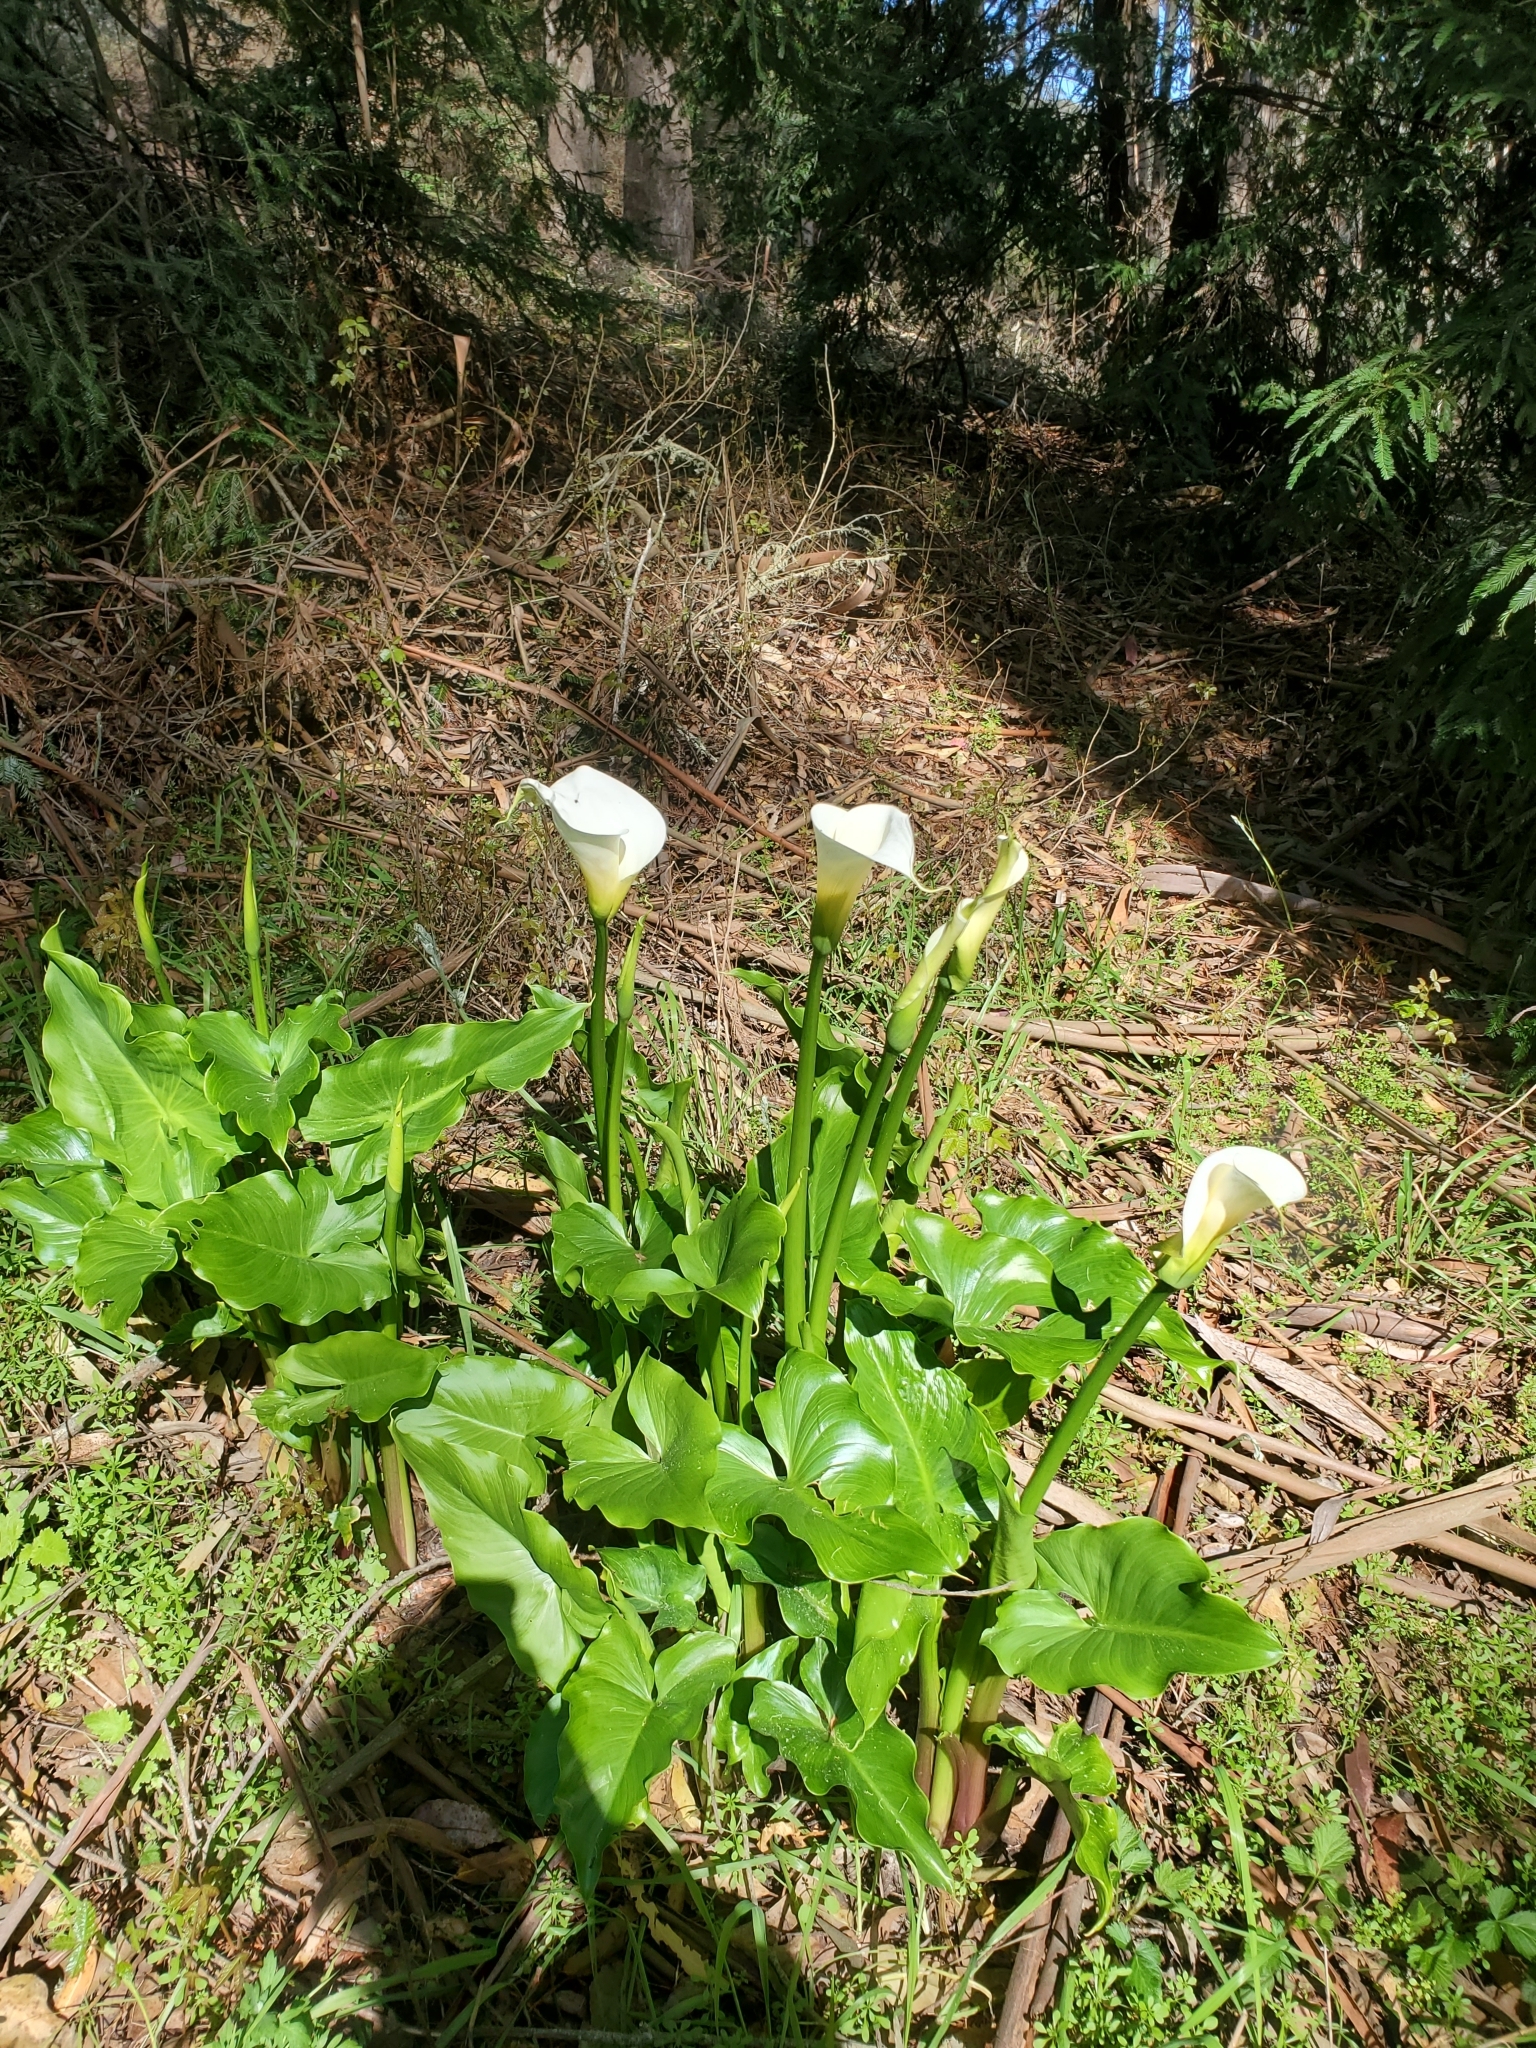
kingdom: Plantae
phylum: Tracheophyta
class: Liliopsida
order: Alismatales
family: Araceae
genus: Zantedeschia
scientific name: Zantedeschia aethiopica
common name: Altar-lily
